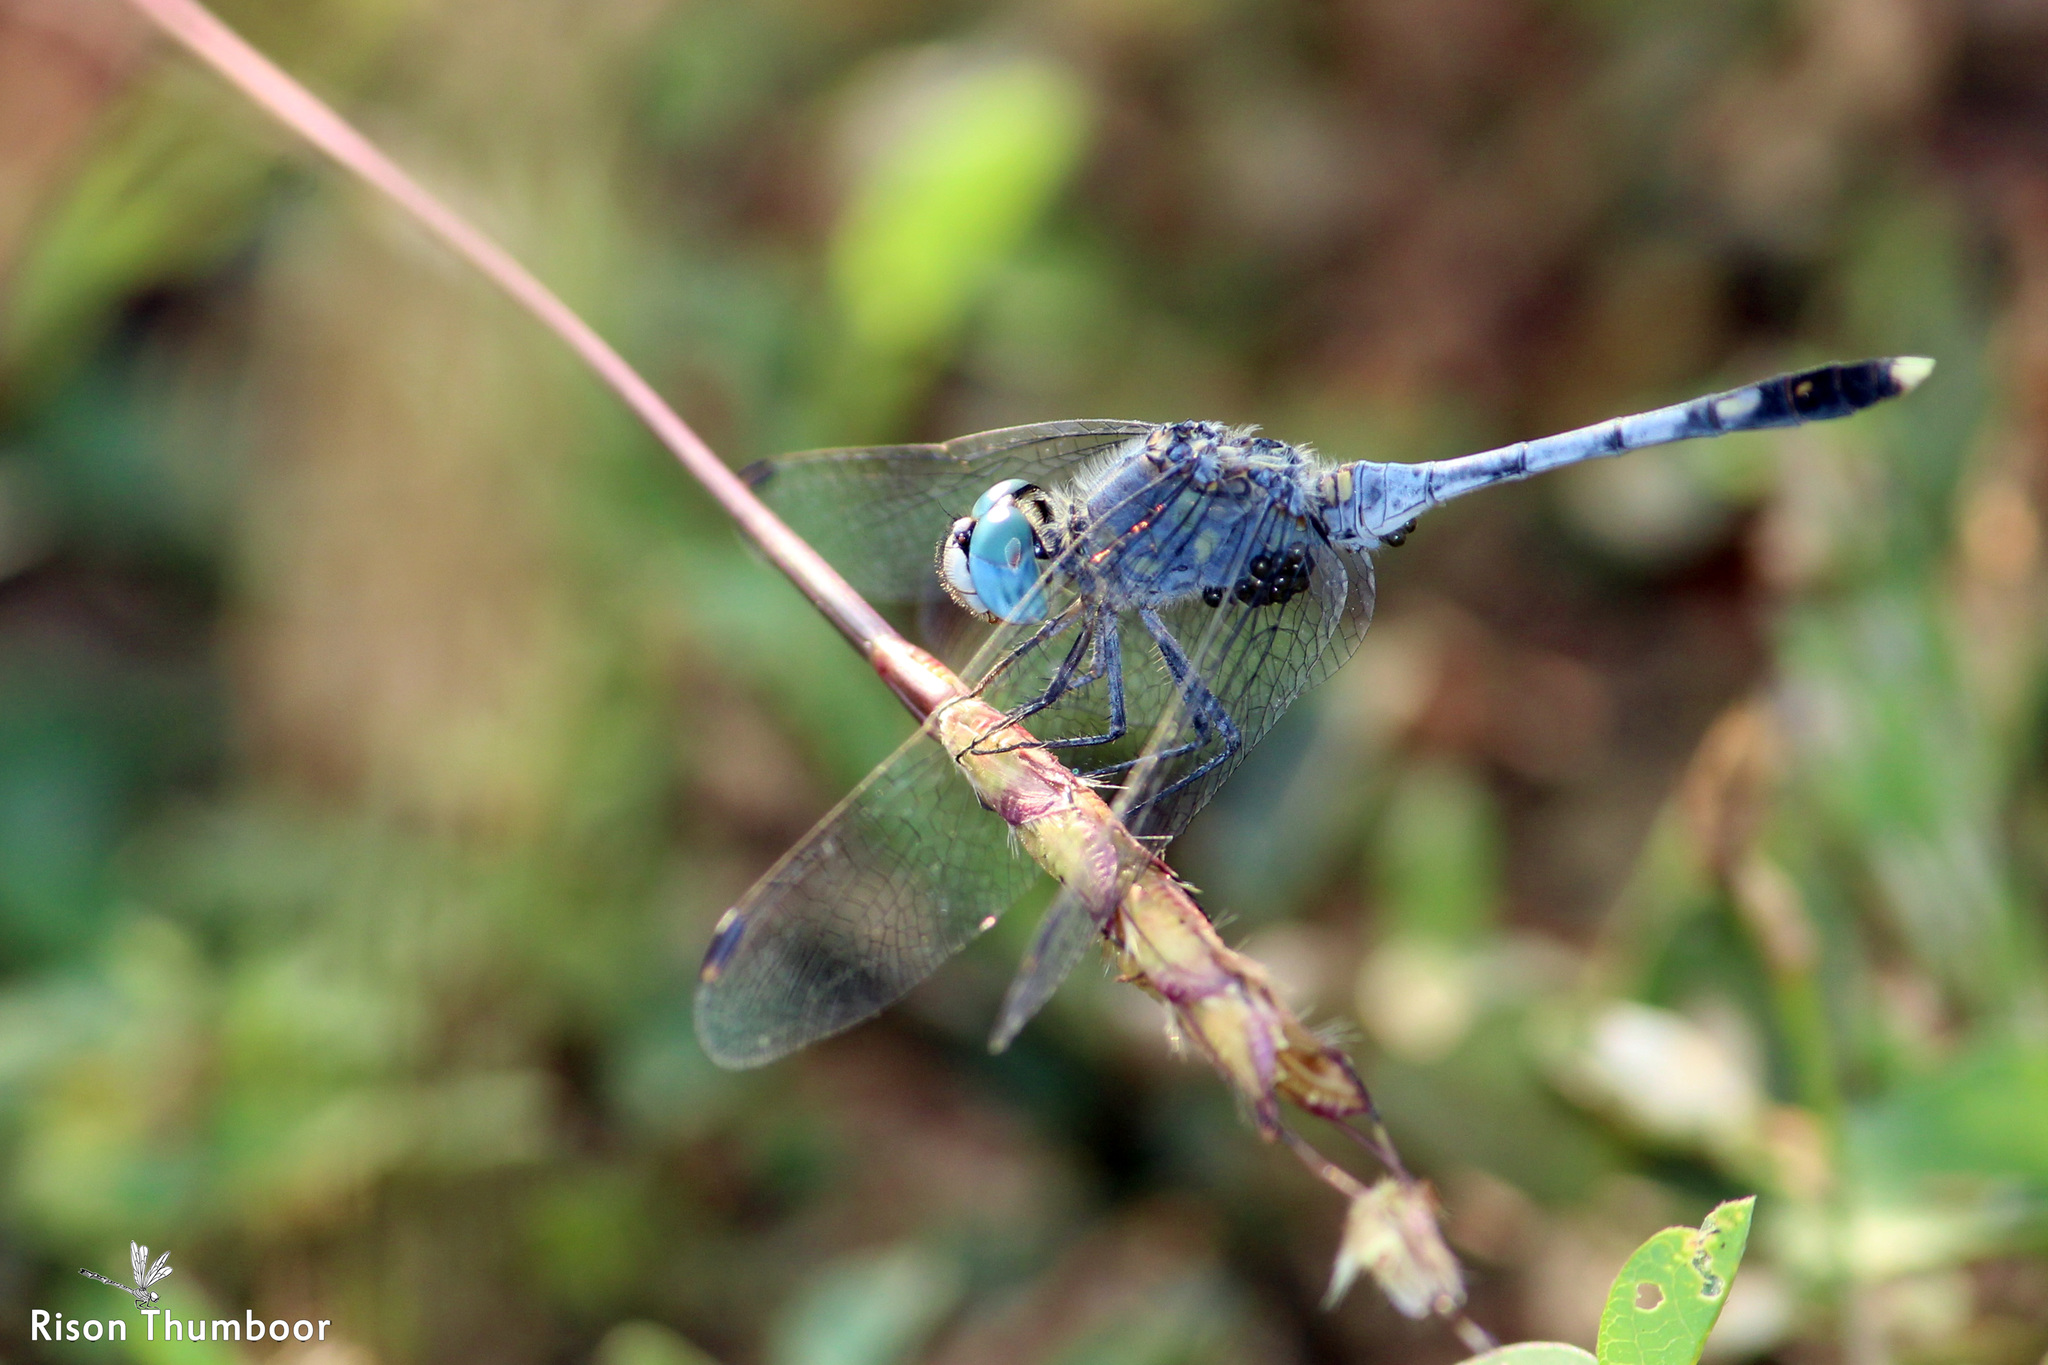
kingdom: Animalia
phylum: Arthropoda
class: Insecta
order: Odonata
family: Libellulidae
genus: Diplacodes
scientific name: Diplacodes trivialis
